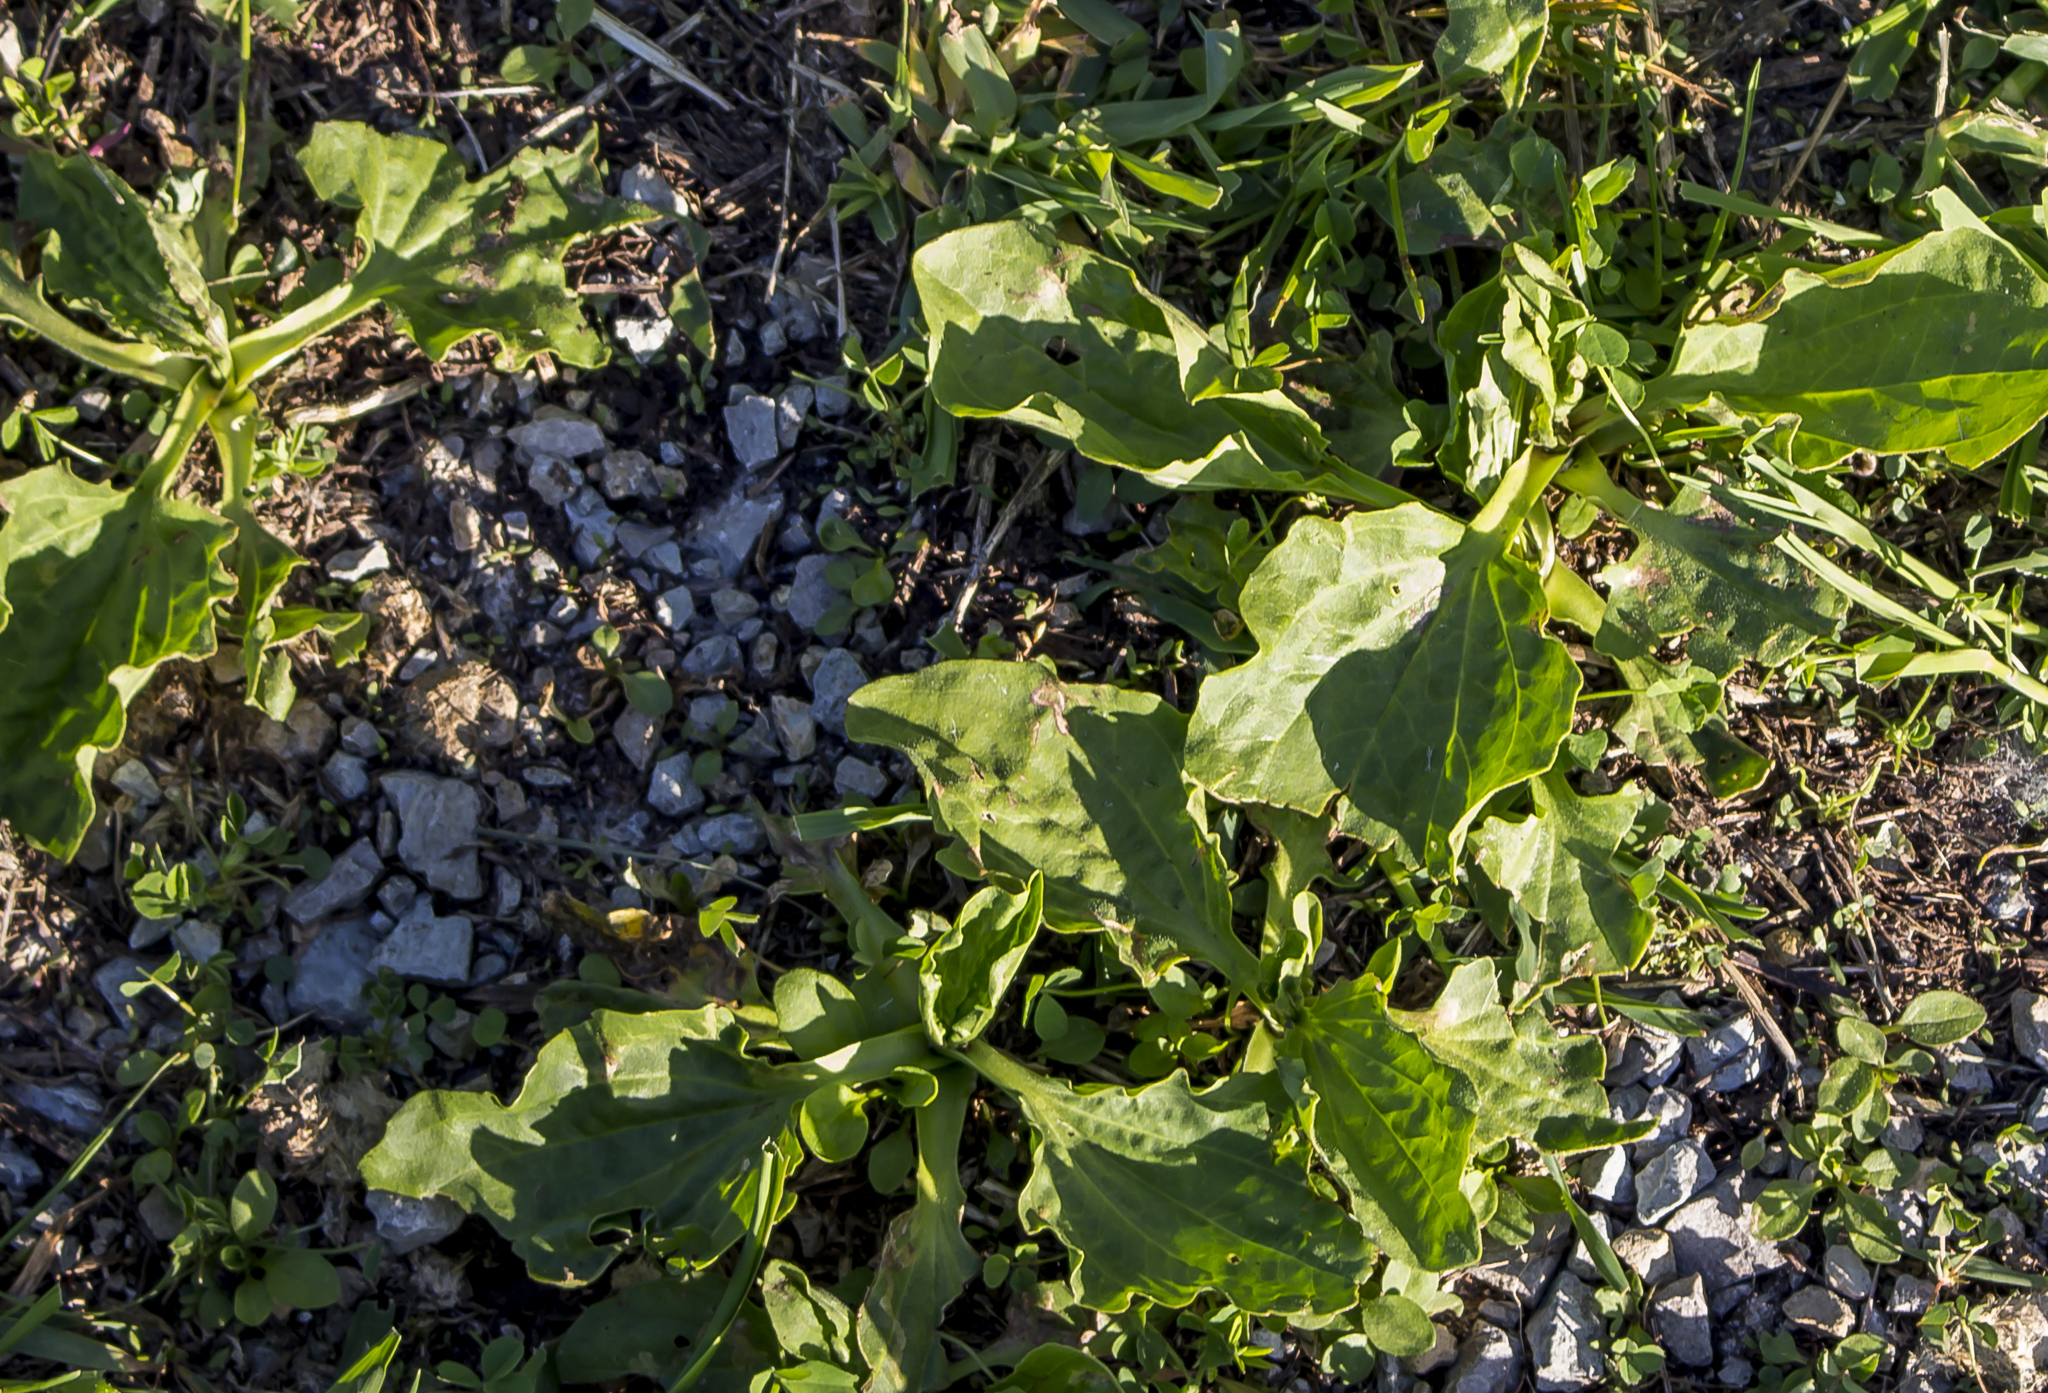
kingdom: Plantae
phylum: Tracheophyta
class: Magnoliopsida
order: Lamiales
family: Plantaginaceae
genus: Plantago
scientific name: Plantago major
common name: Common plantain
